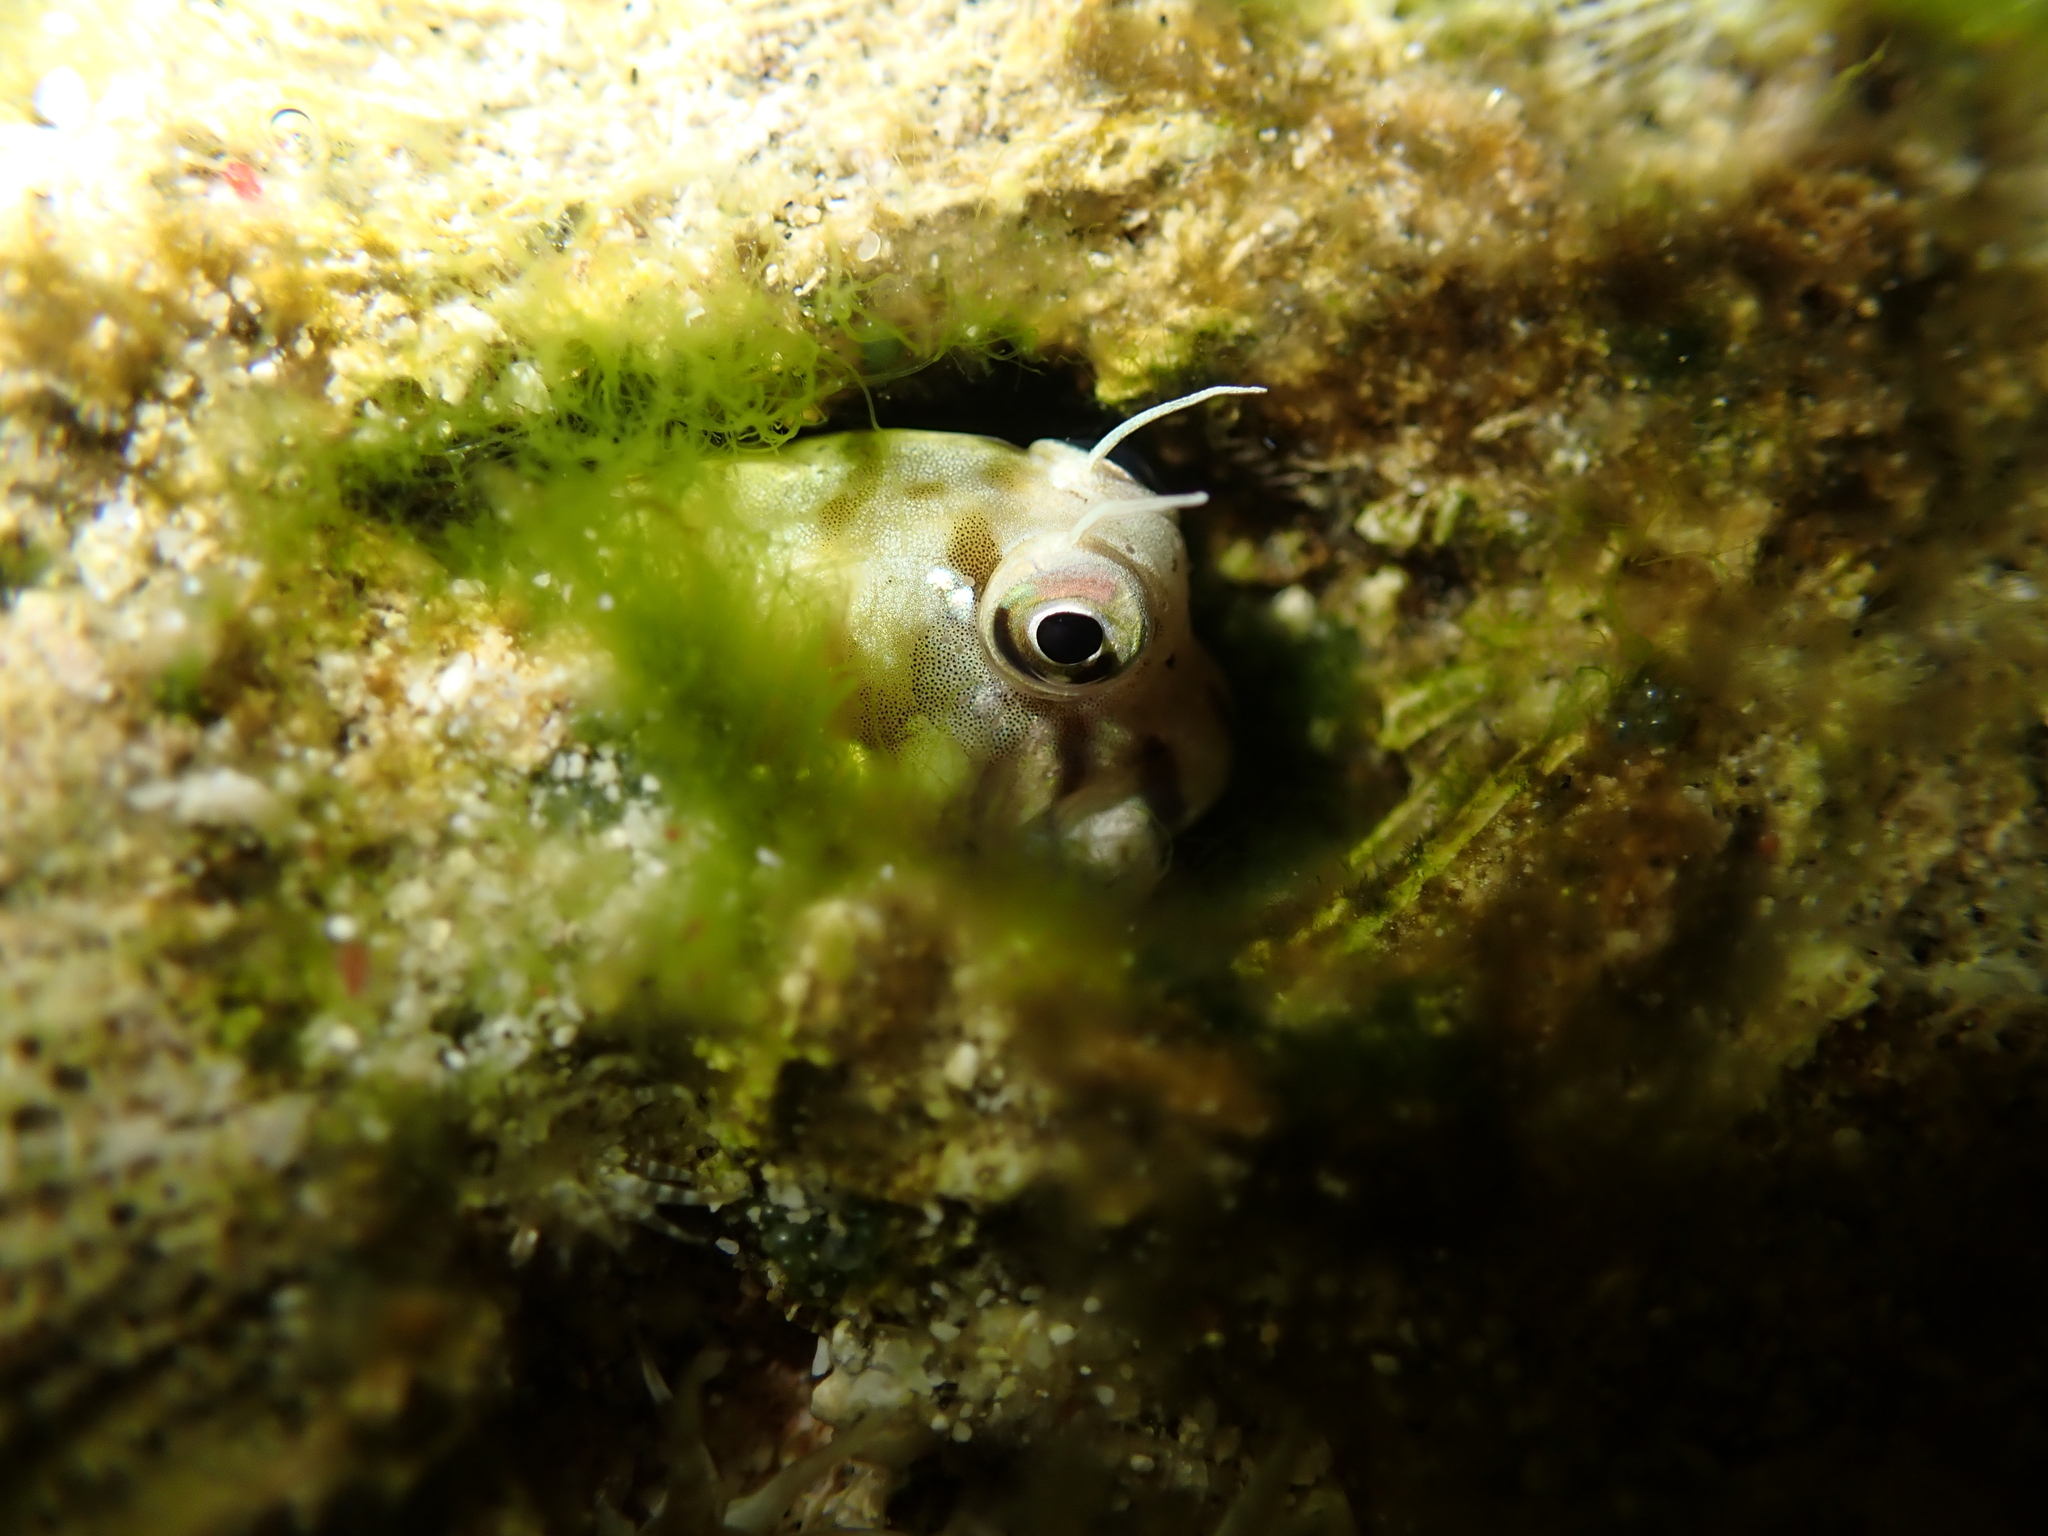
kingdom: Animalia
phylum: Chordata
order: Perciformes
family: Blenniidae
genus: Rhabdoblennius
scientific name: Rhabdoblennius nitidus
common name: Barred-chin blenny
